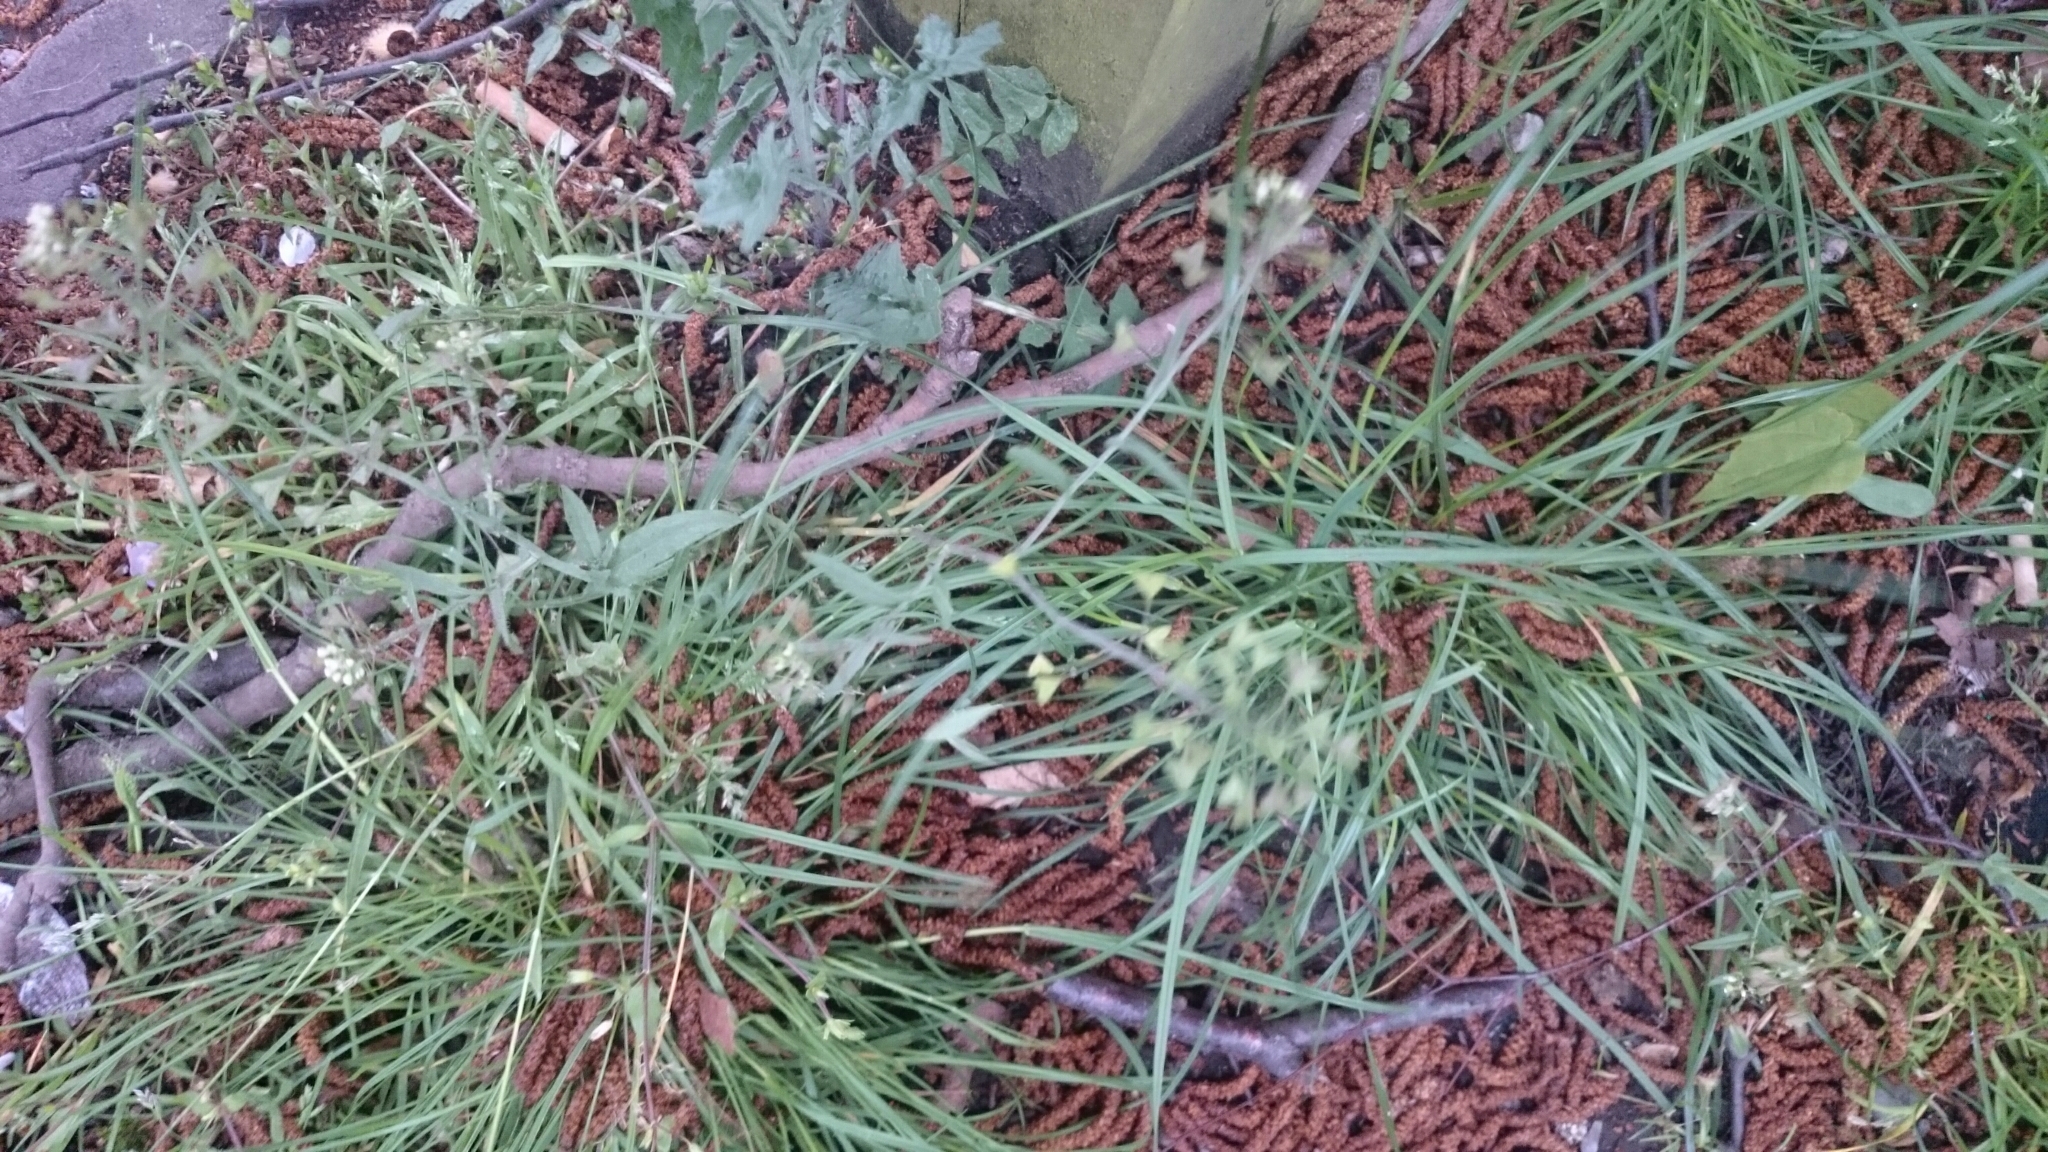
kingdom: Plantae
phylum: Tracheophyta
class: Magnoliopsida
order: Brassicales
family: Brassicaceae
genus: Capsella
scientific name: Capsella bursa-pastoris
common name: Shepherd's purse
